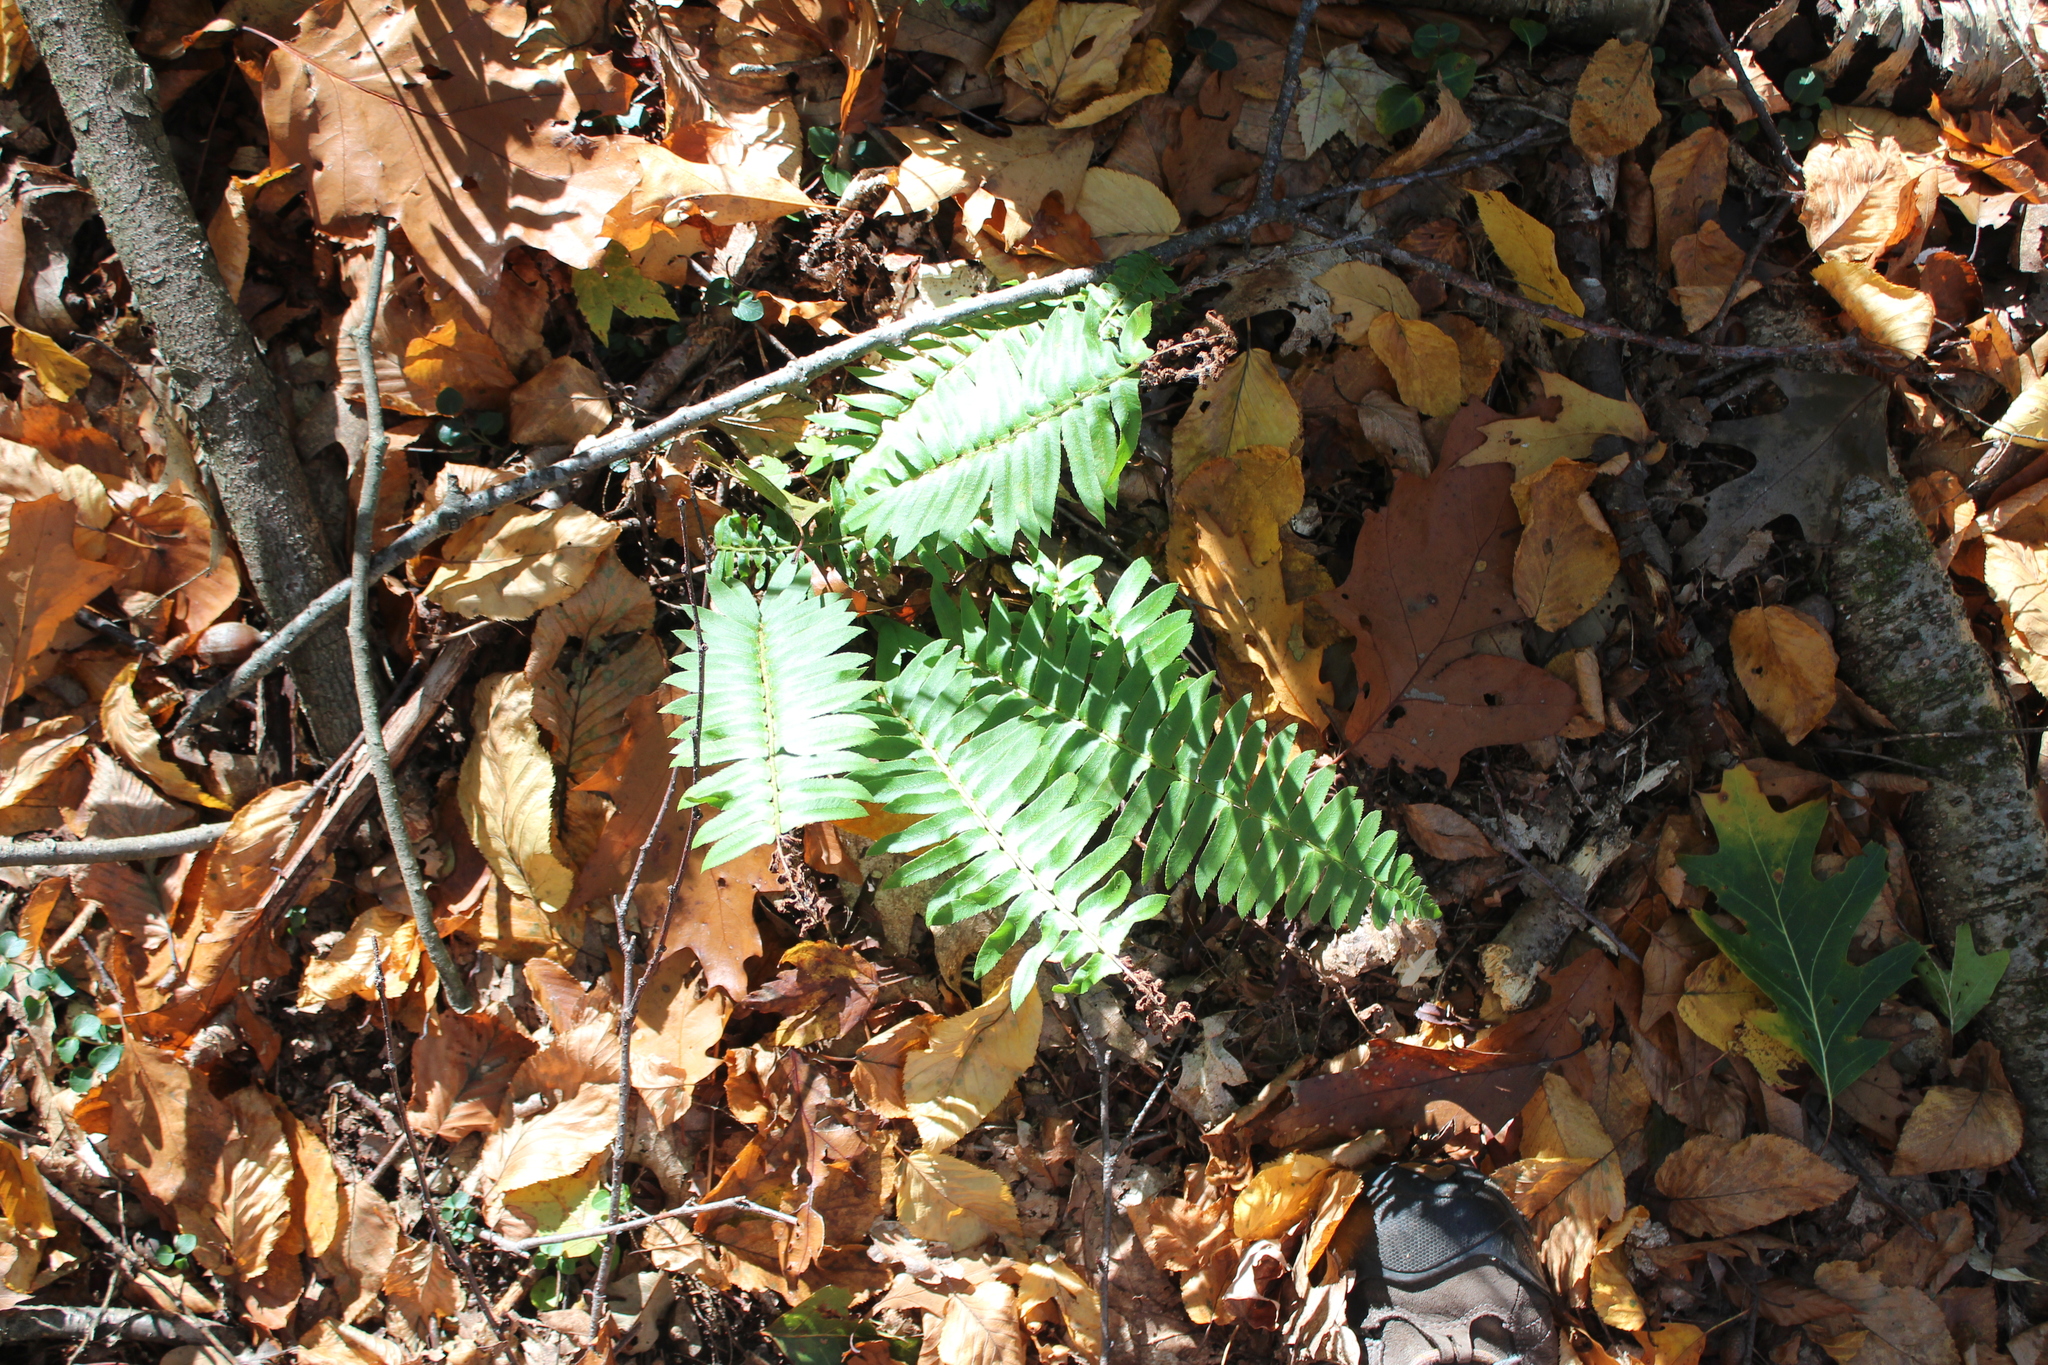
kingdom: Plantae
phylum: Tracheophyta
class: Polypodiopsida
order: Polypodiales
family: Dryopteridaceae
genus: Polystichum
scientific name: Polystichum acrostichoides
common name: Christmas fern
